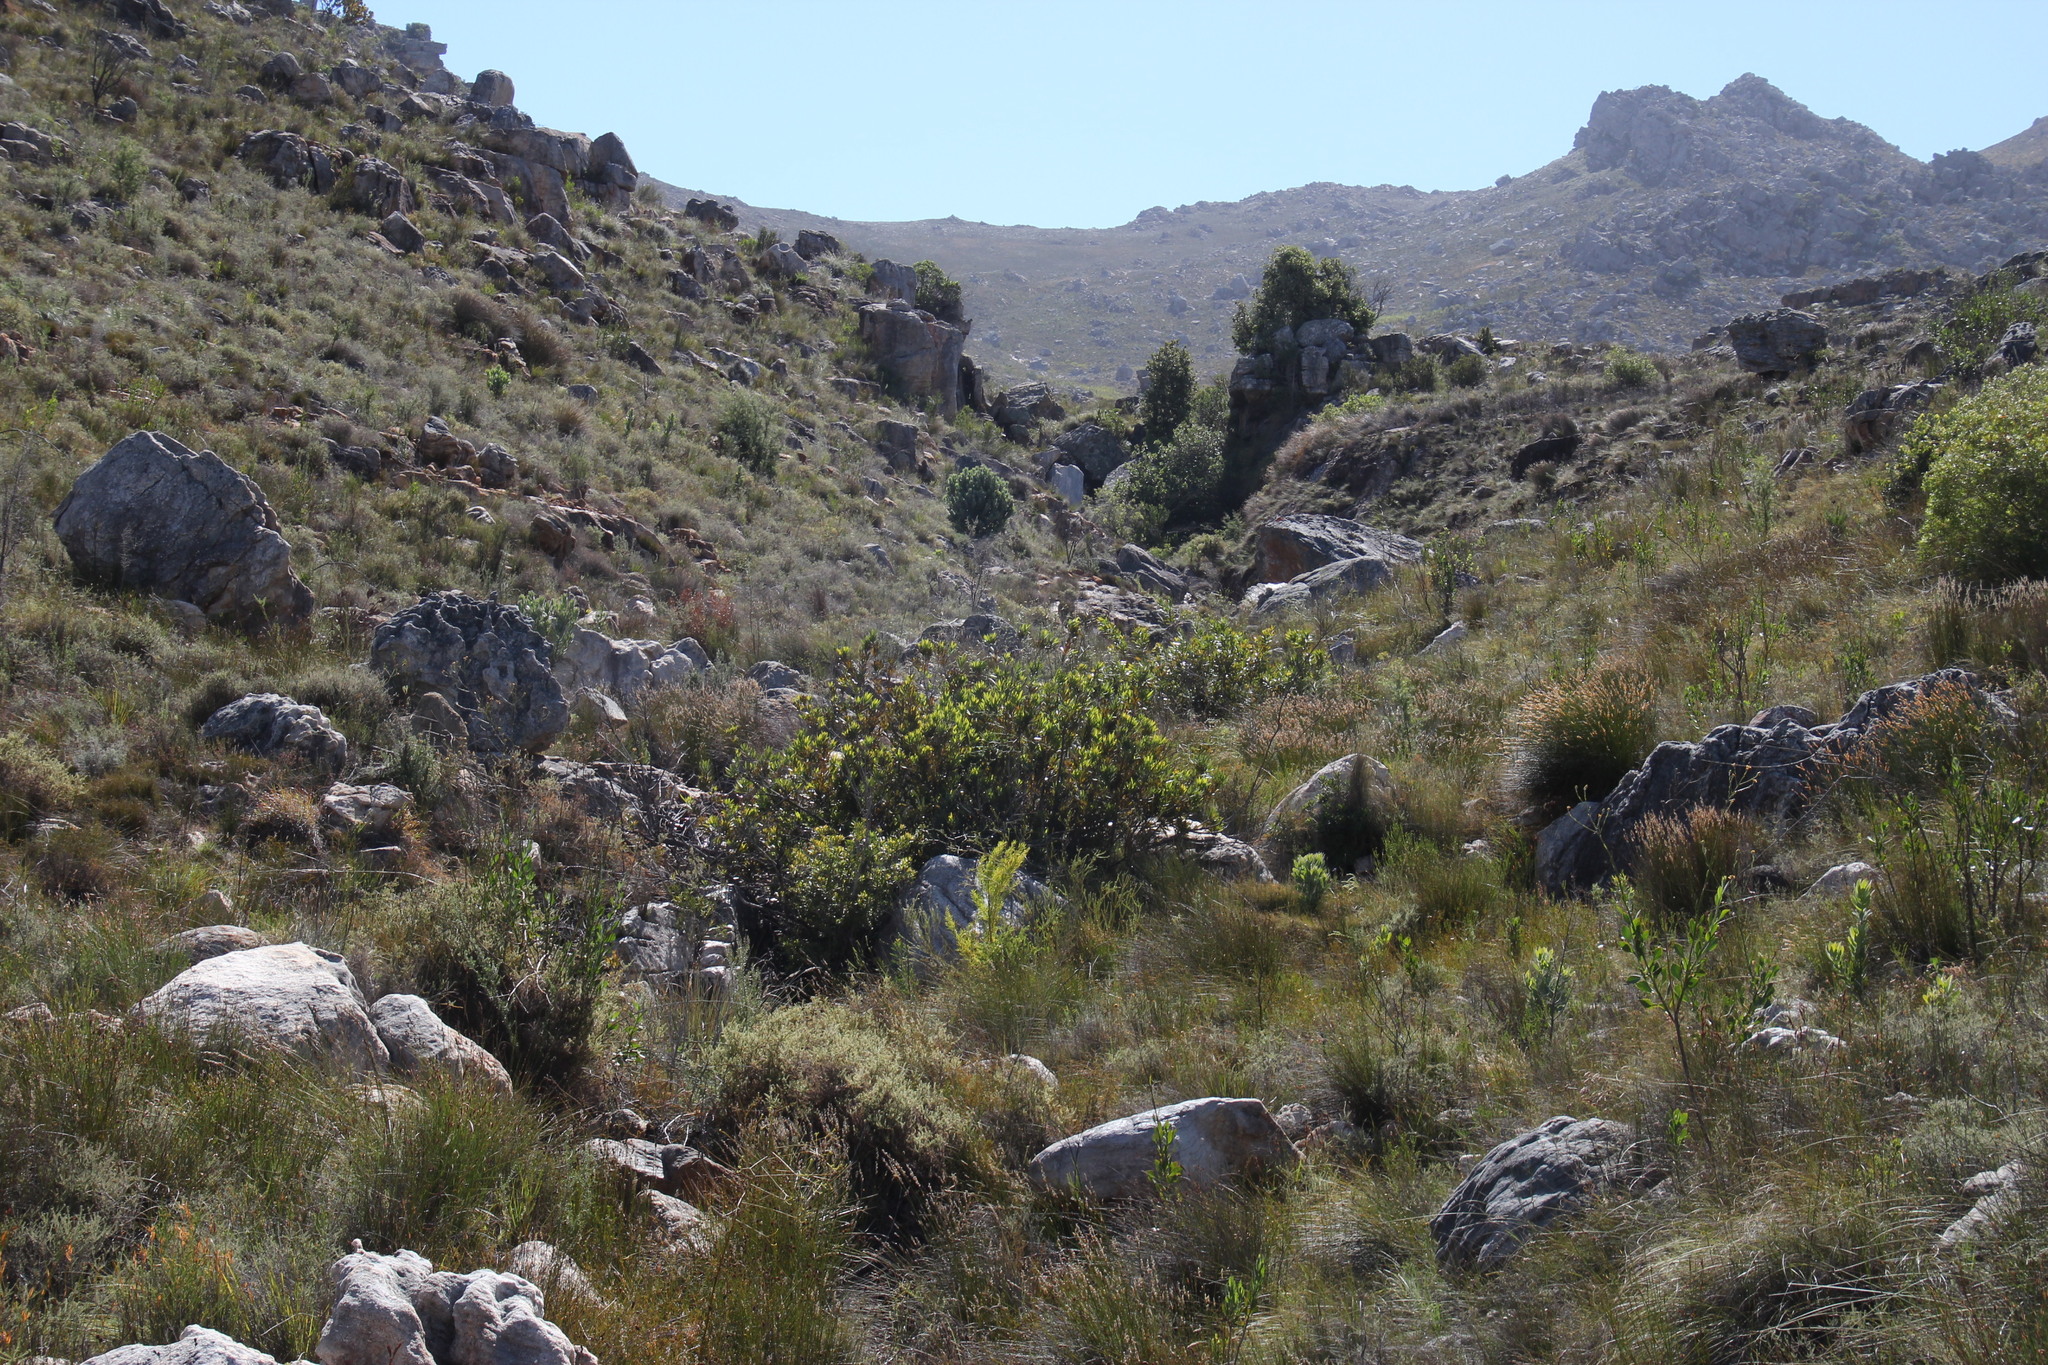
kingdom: Plantae
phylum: Tracheophyta
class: Magnoliopsida
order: Proteales
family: Proteaceae
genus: Brabejum
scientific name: Brabejum stellatifolium
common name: Wild almond
